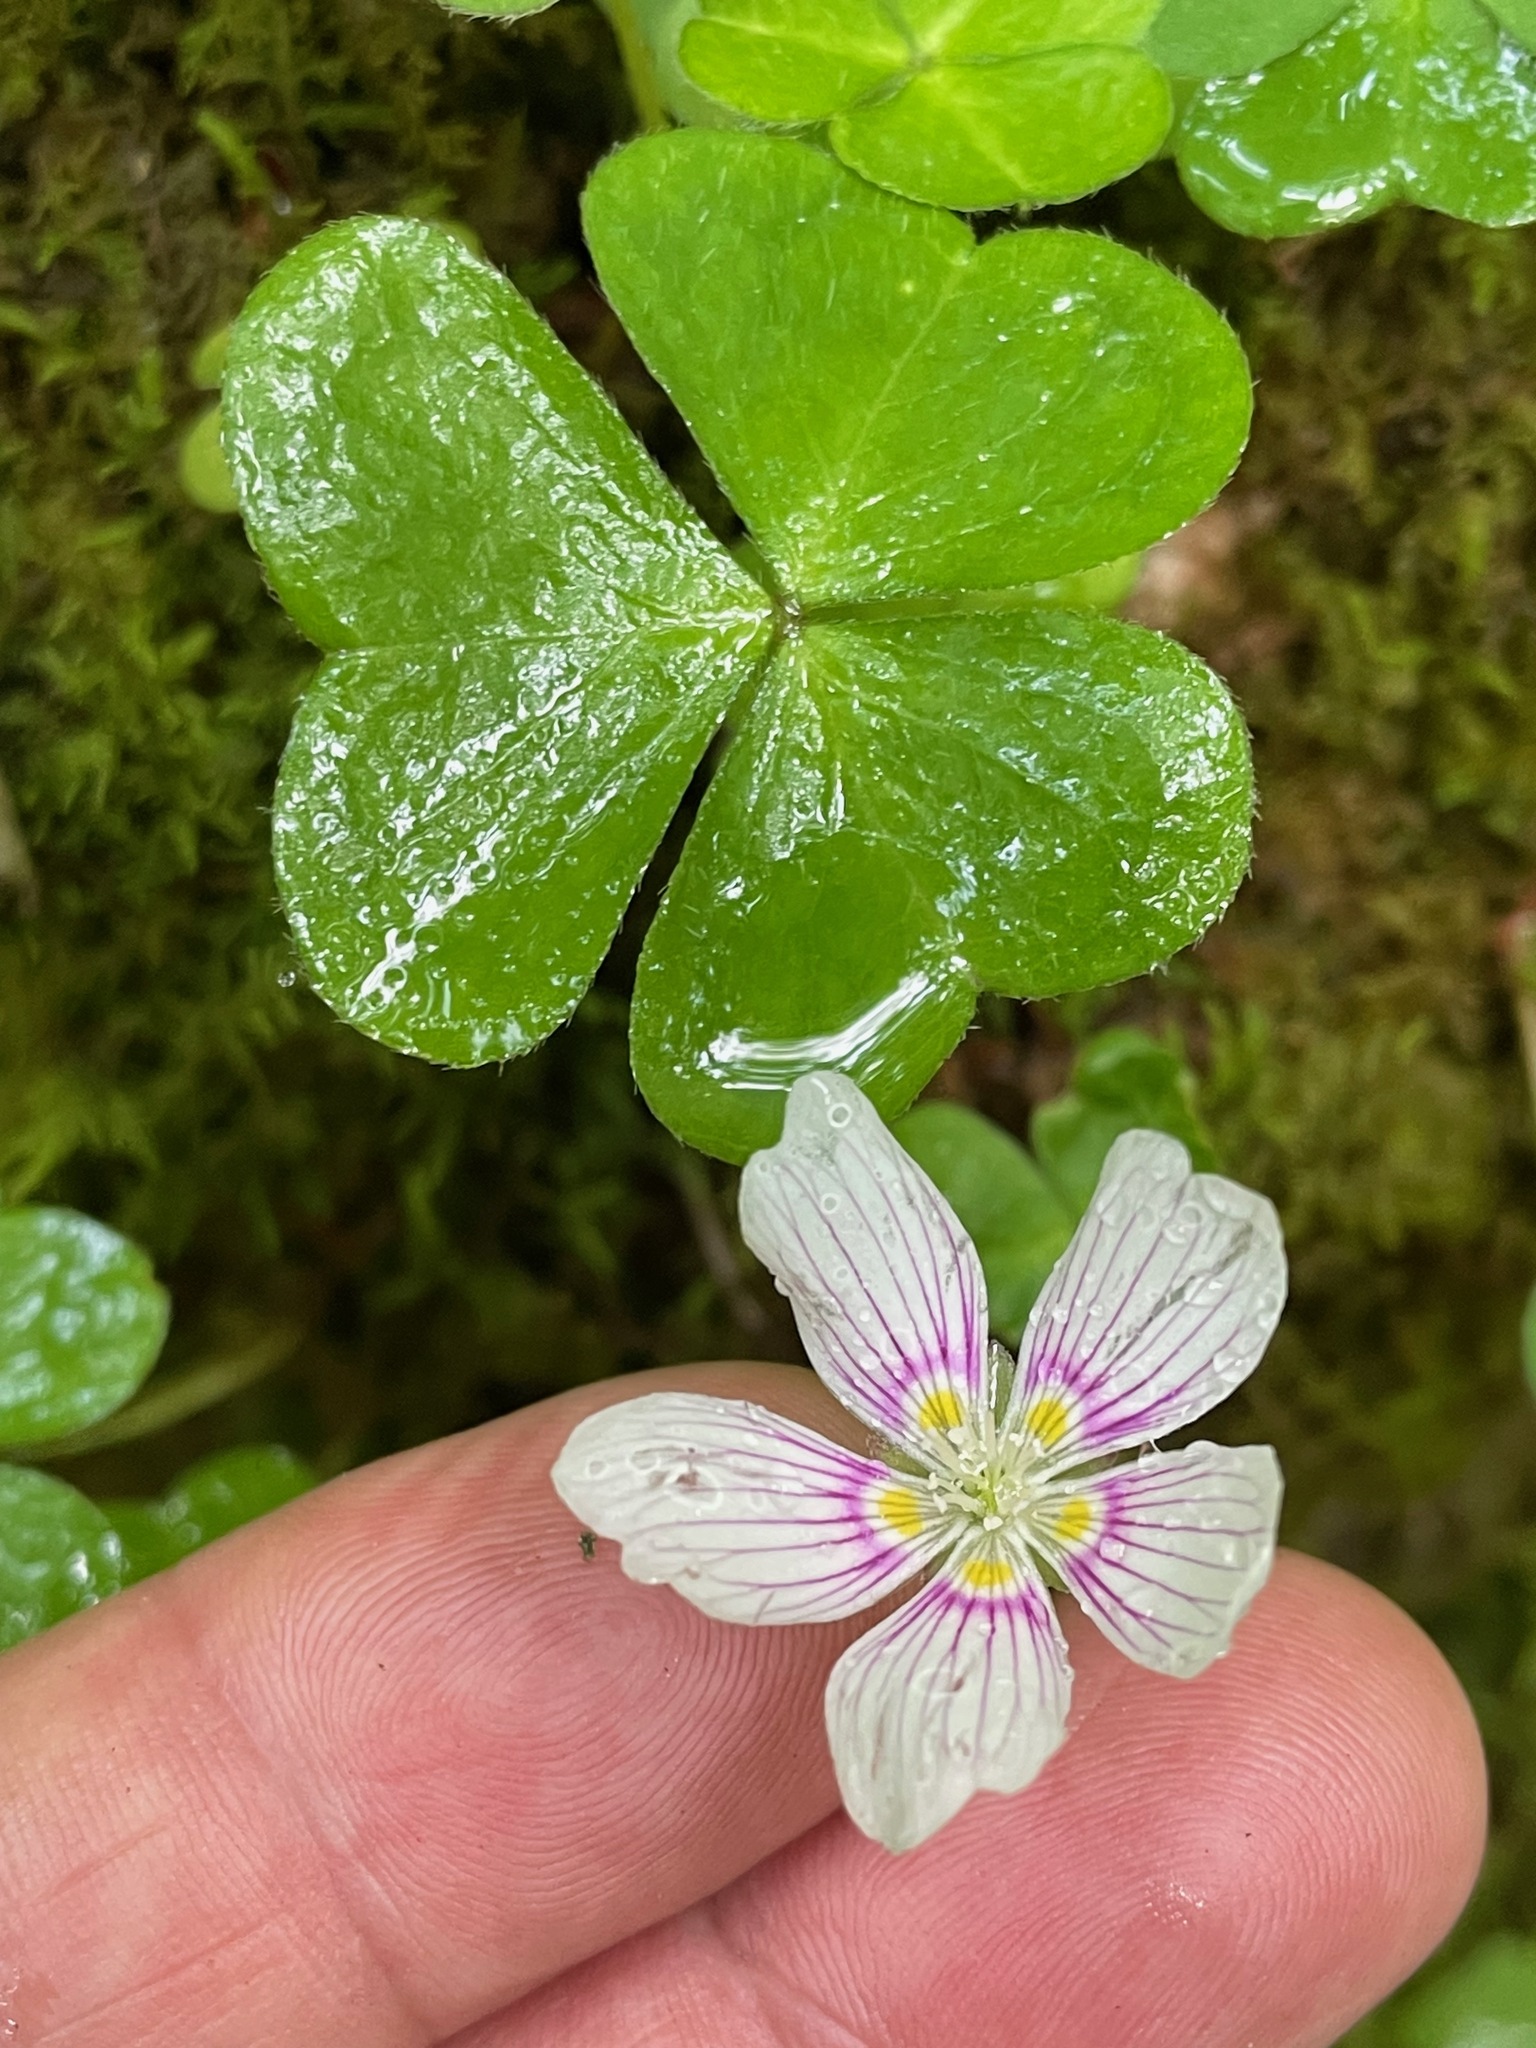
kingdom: Plantae
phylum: Tracheophyta
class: Magnoliopsida
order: Oxalidales
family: Oxalidaceae
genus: Oxalis
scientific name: Oxalis montana
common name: American wood-sorrel
